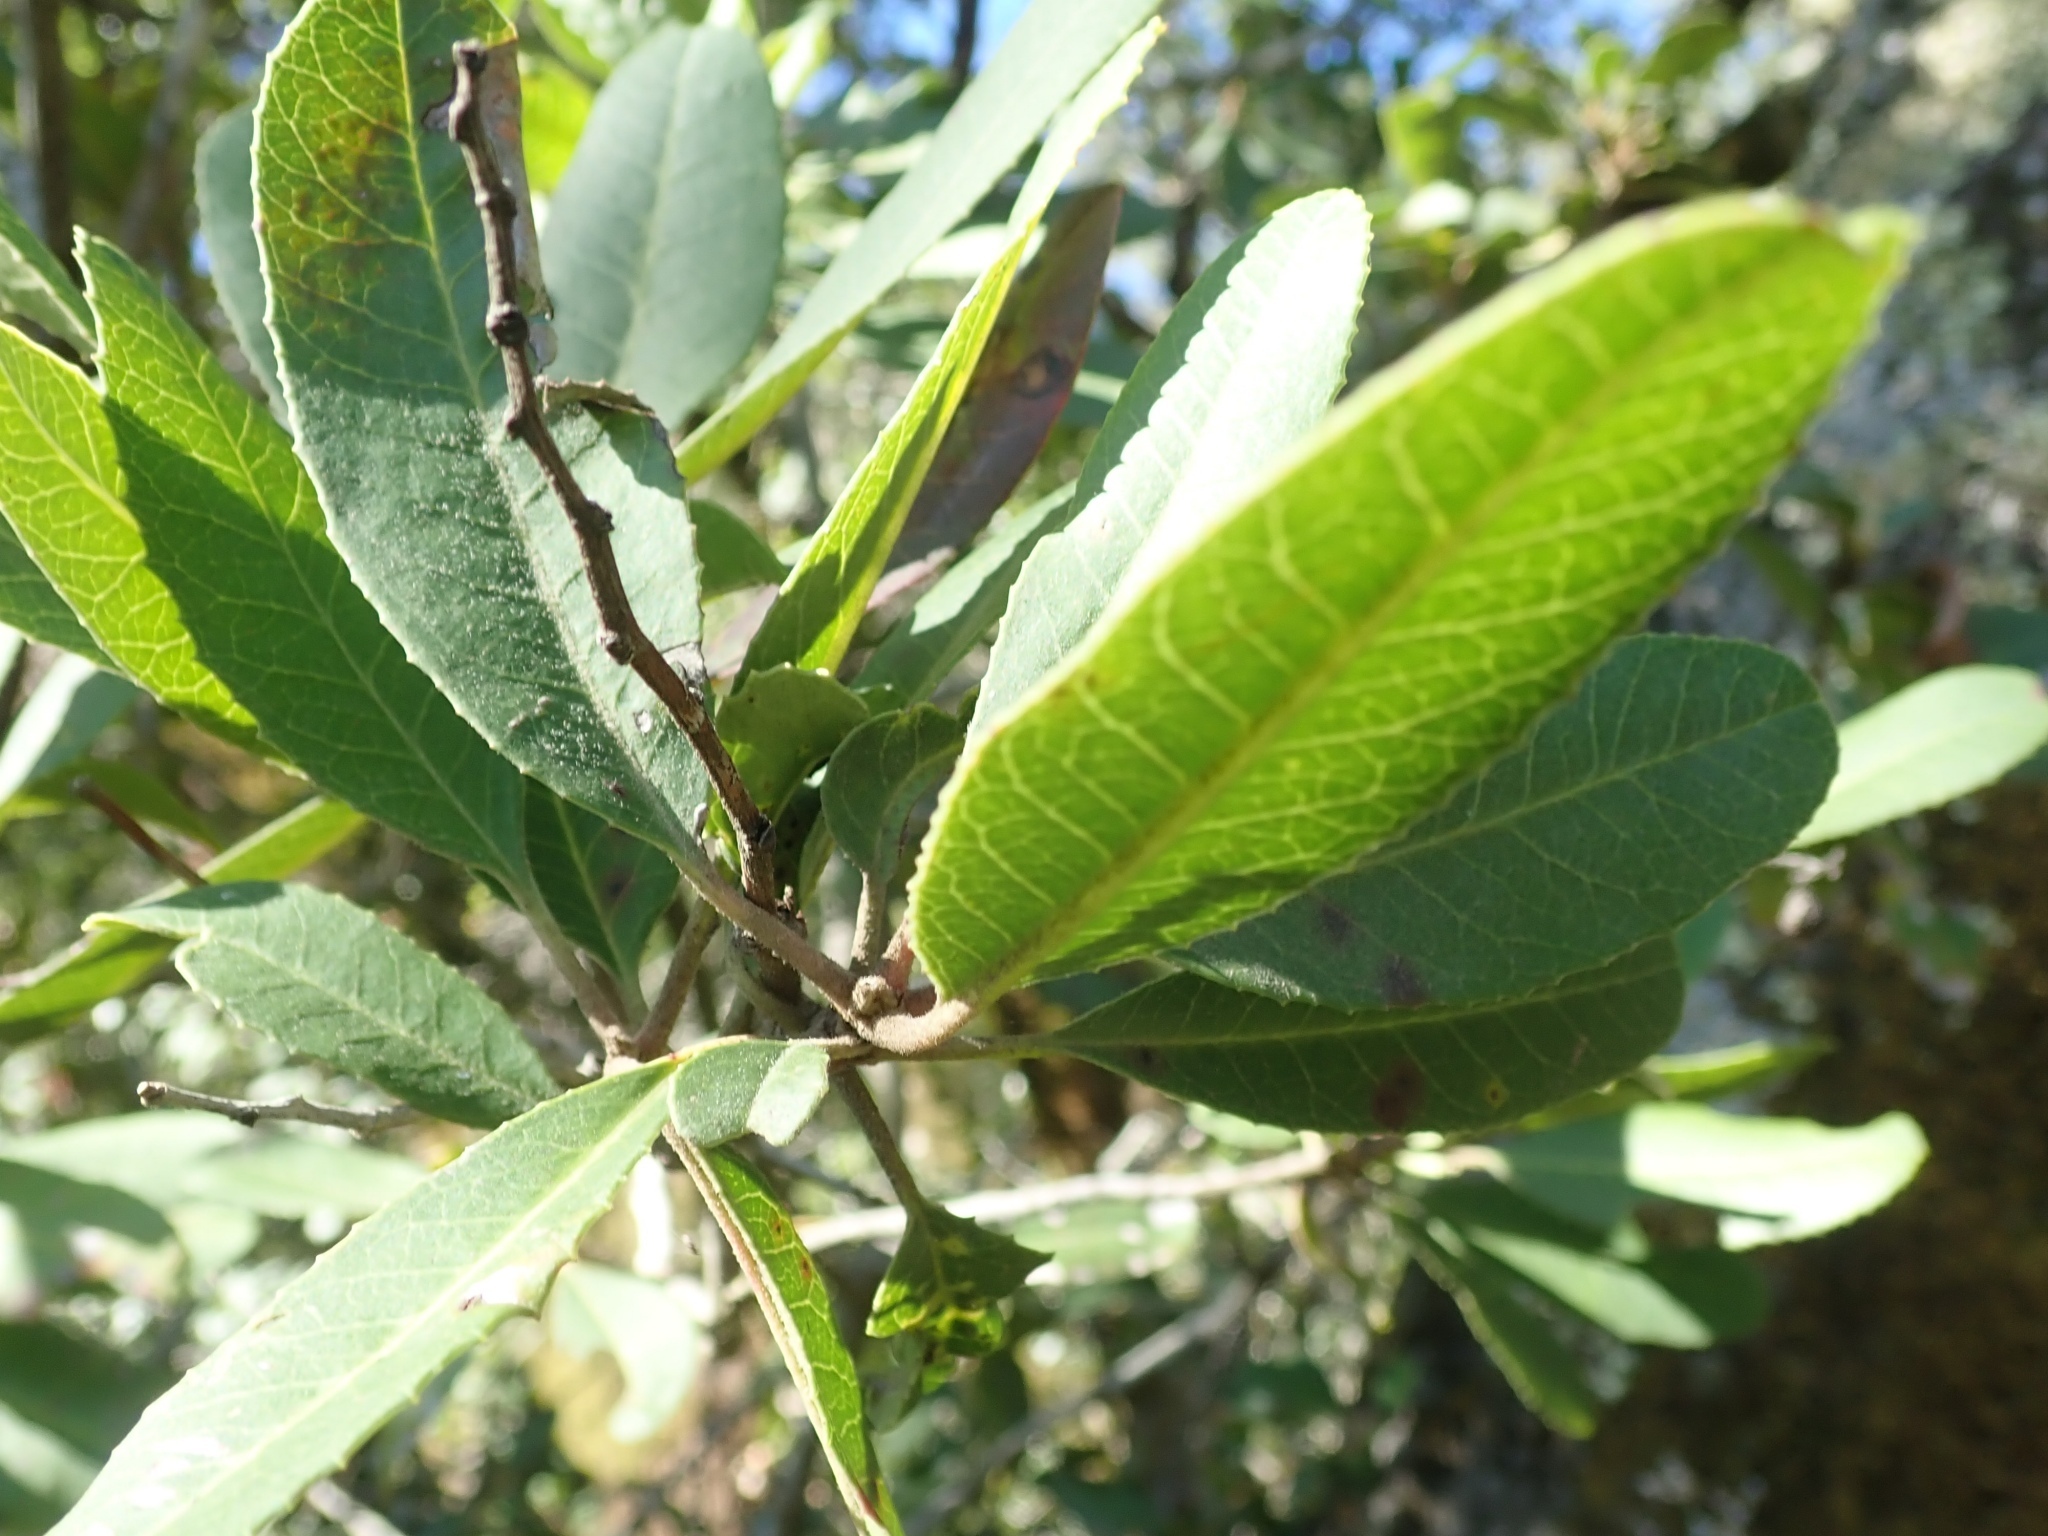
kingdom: Plantae
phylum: Tracheophyta
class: Magnoliopsida
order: Rosales
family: Rosaceae
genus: Heteromeles
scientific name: Heteromeles arbutifolia
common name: California-holly
